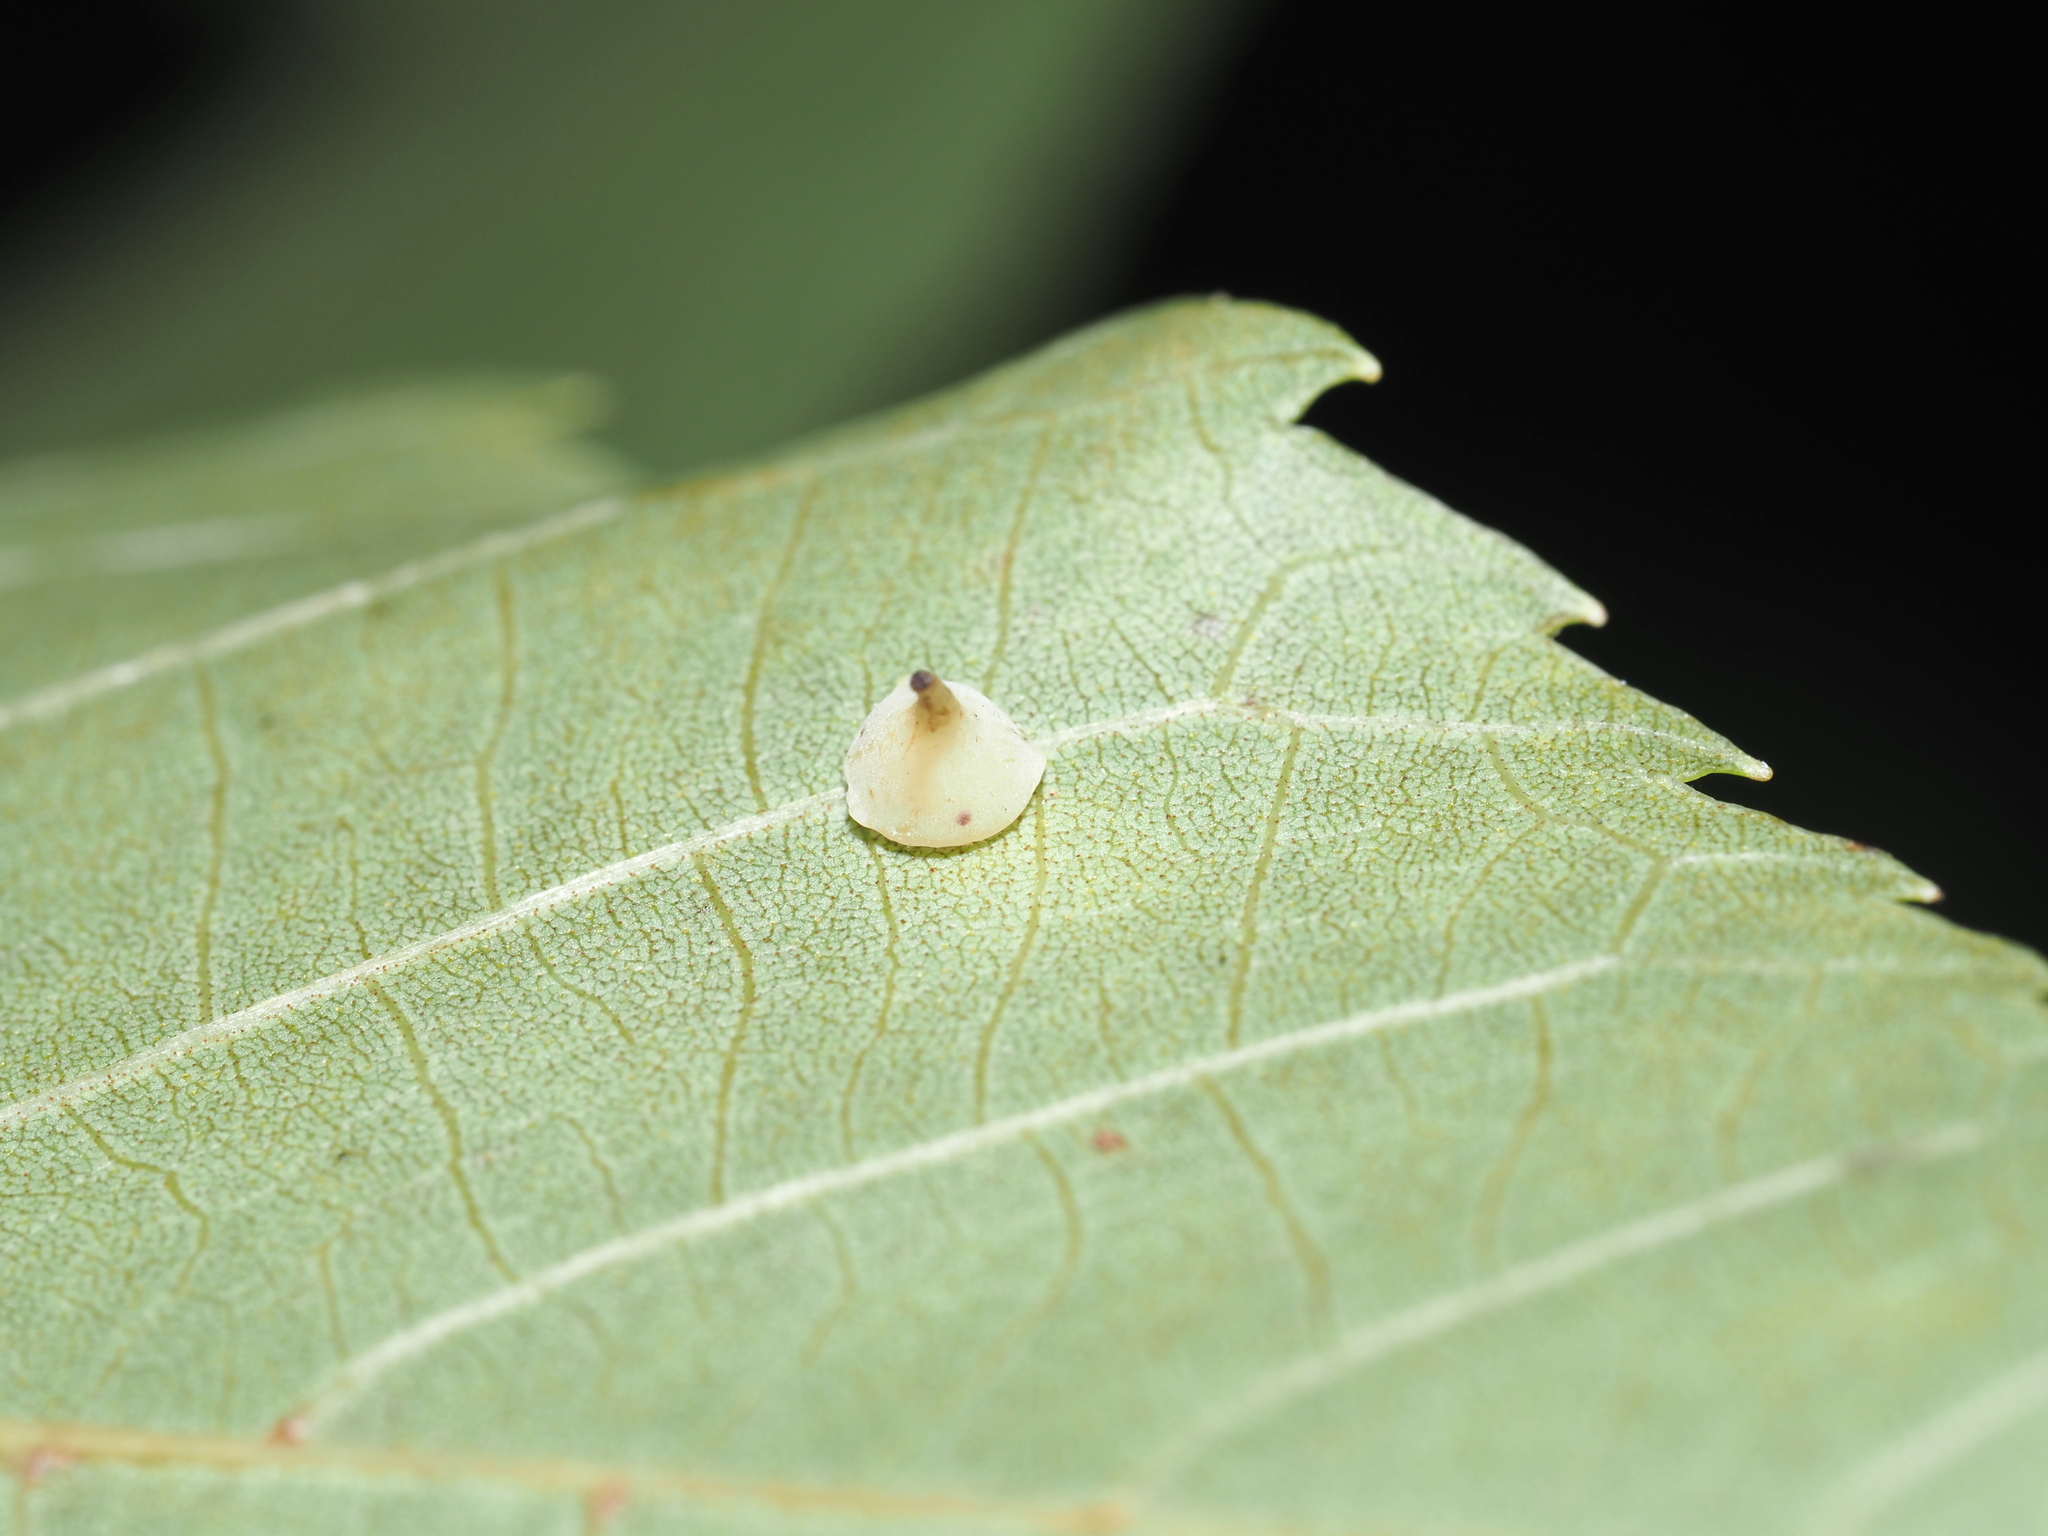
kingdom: Animalia
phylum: Arthropoda
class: Insecta
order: Diptera
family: Cecidomyiidae
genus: Caryomyia
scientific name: Caryomyia sanguinolenta
